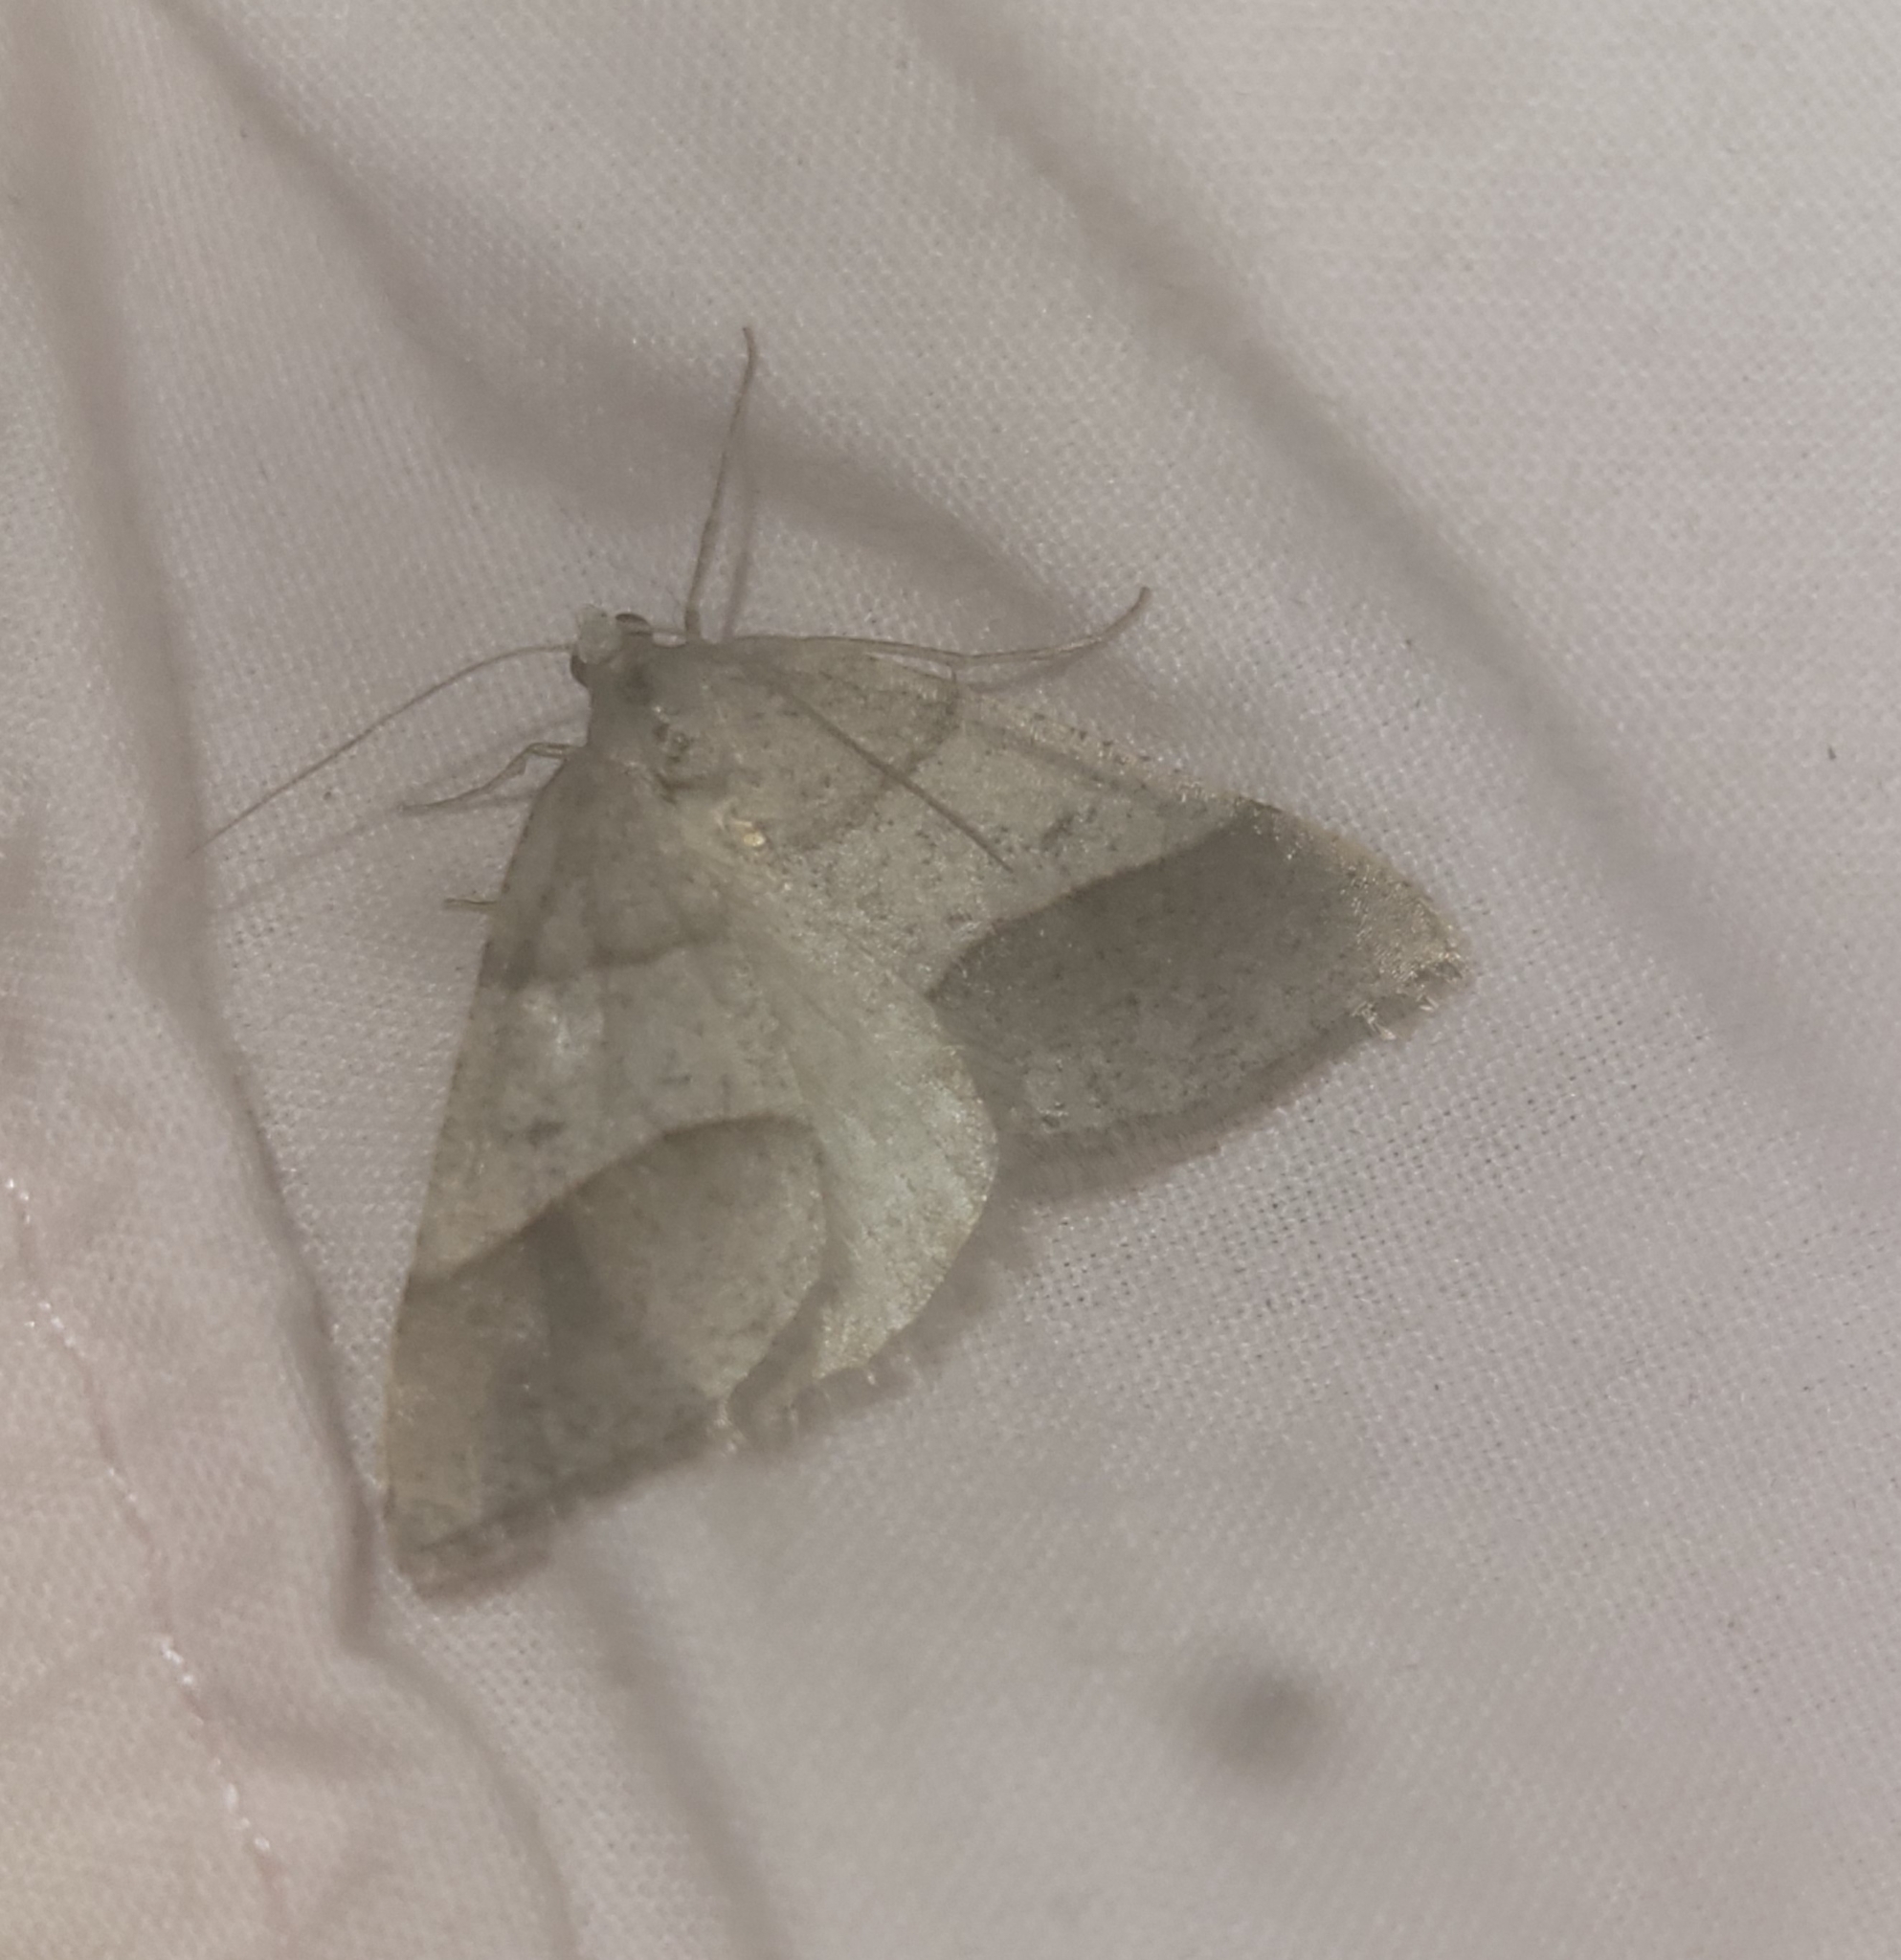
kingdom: Animalia
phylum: Arthropoda
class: Insecta
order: Lepidoptera
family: Pterophoridae
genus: Pterophorus
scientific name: Pterophorus Petrophora convergata
